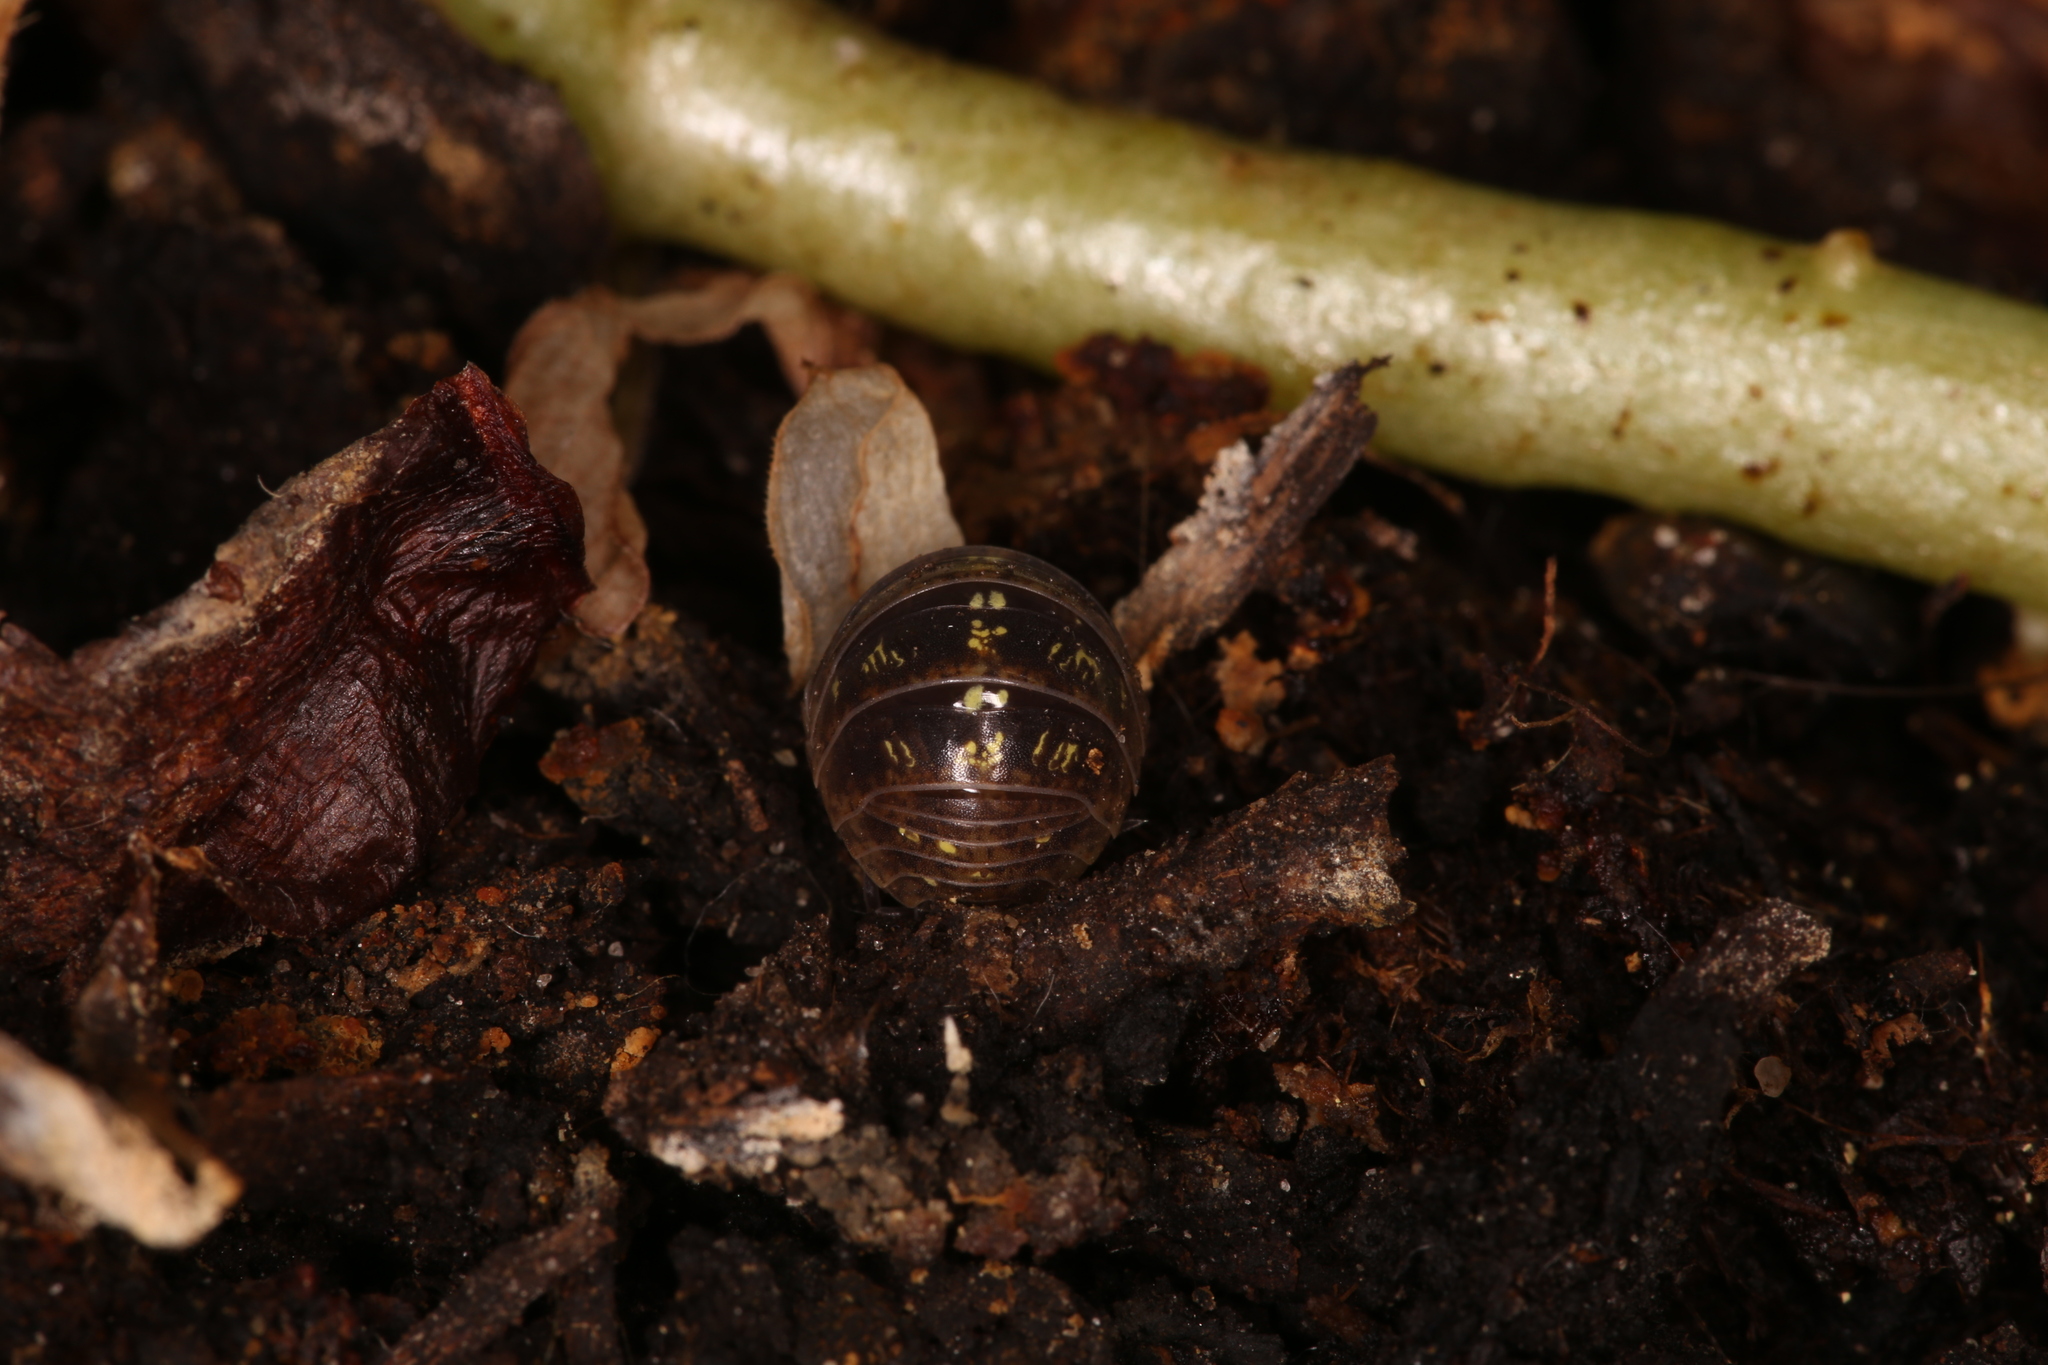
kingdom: Animalia
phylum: Arthropoda
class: Malacostraca
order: Isopoda
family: Armadillidiidae
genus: Armadillidium
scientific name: Armadillidium vulgare
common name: Common pill woodlouse
